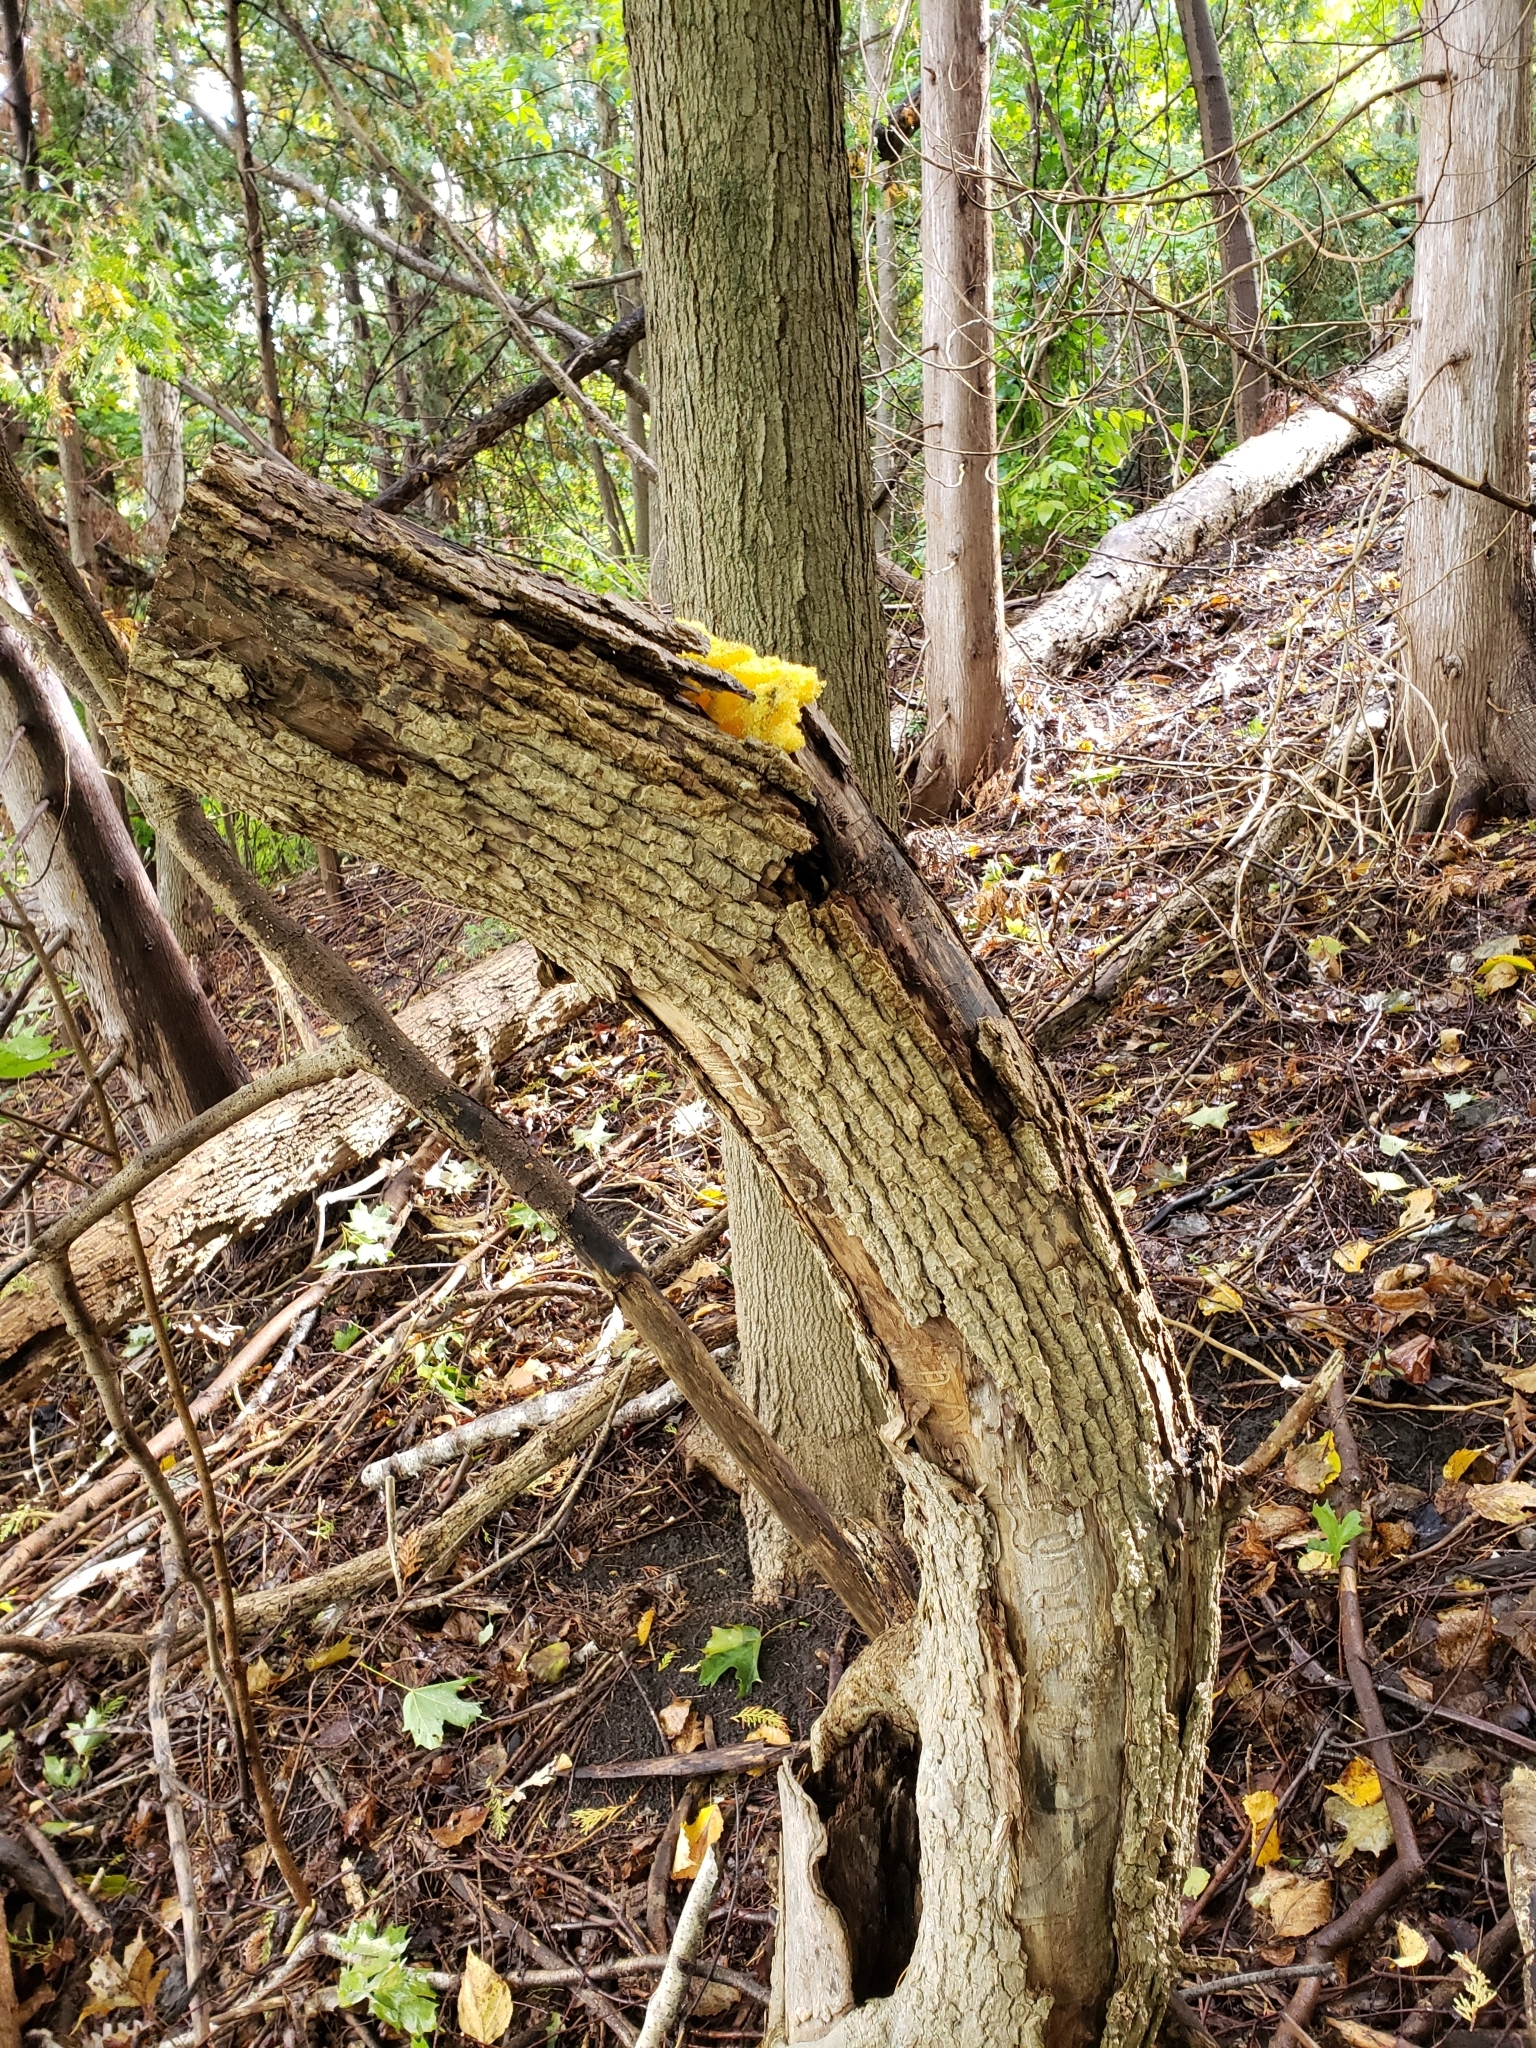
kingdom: Protozoa
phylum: Mycetozoa
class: Myxomycetes
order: Physarales
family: Physaraceae
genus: Fuligo
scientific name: Fuligo septica
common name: Dog vomit slime mold
